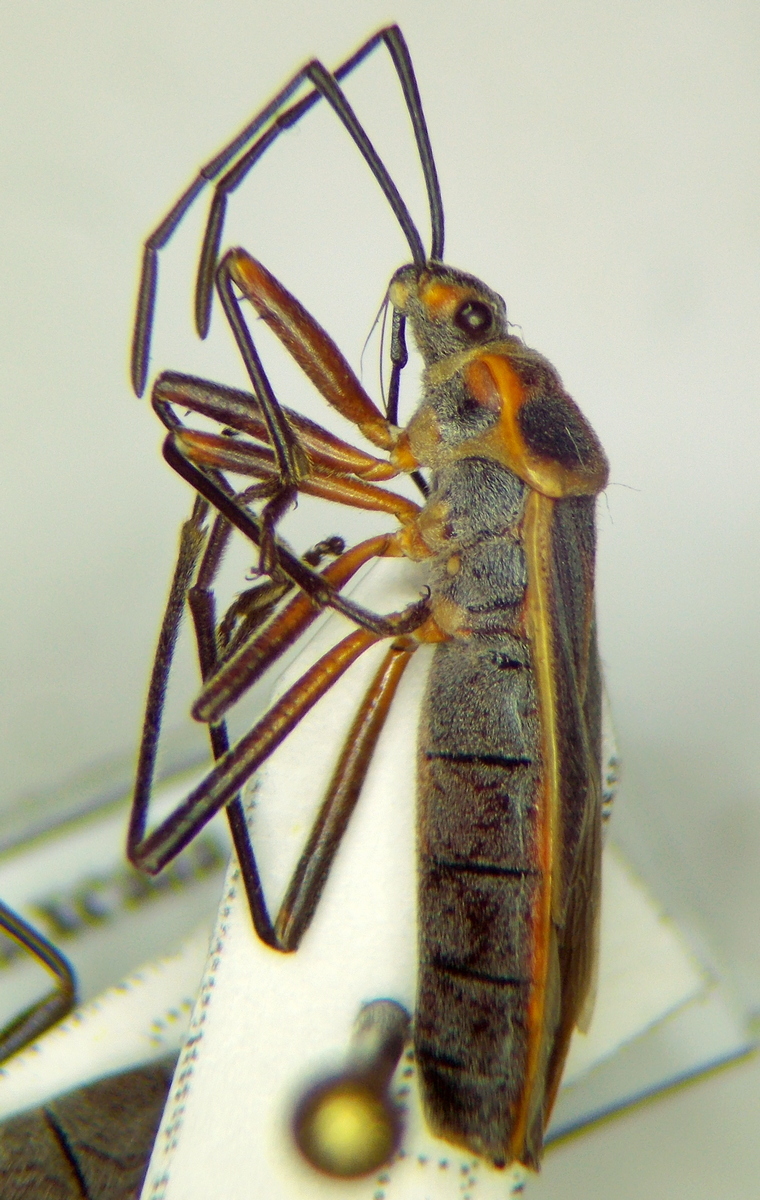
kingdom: Animalia
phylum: Arthropoda
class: Insecta
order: Hemiptera
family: Largidae
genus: Stenomacra
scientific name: Stenomacra marginella
